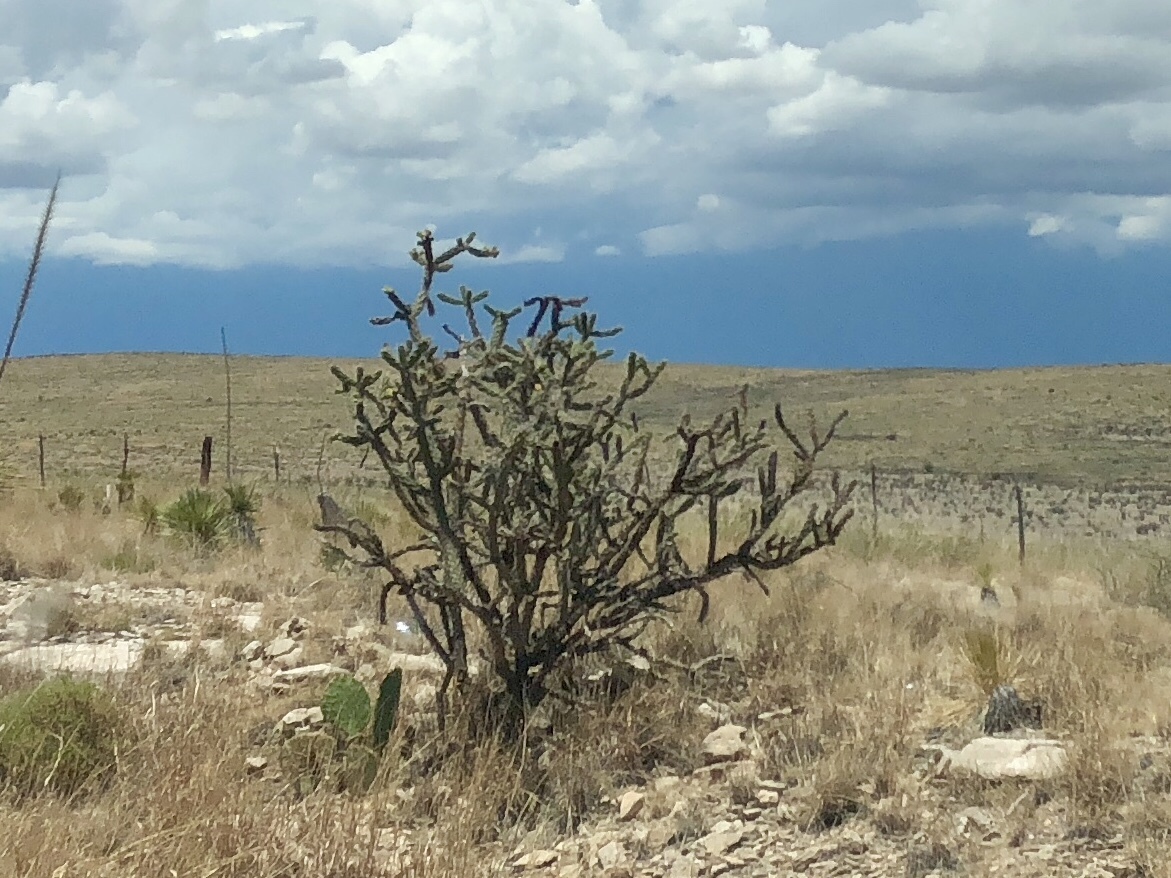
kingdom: Plantae
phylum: Tracheophyta
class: Magnoliopsida
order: Caryophyllales
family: Cactaceae
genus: Cylindropuntia
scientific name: Cylindropuntia imbricata
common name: Candelabrum cactus
